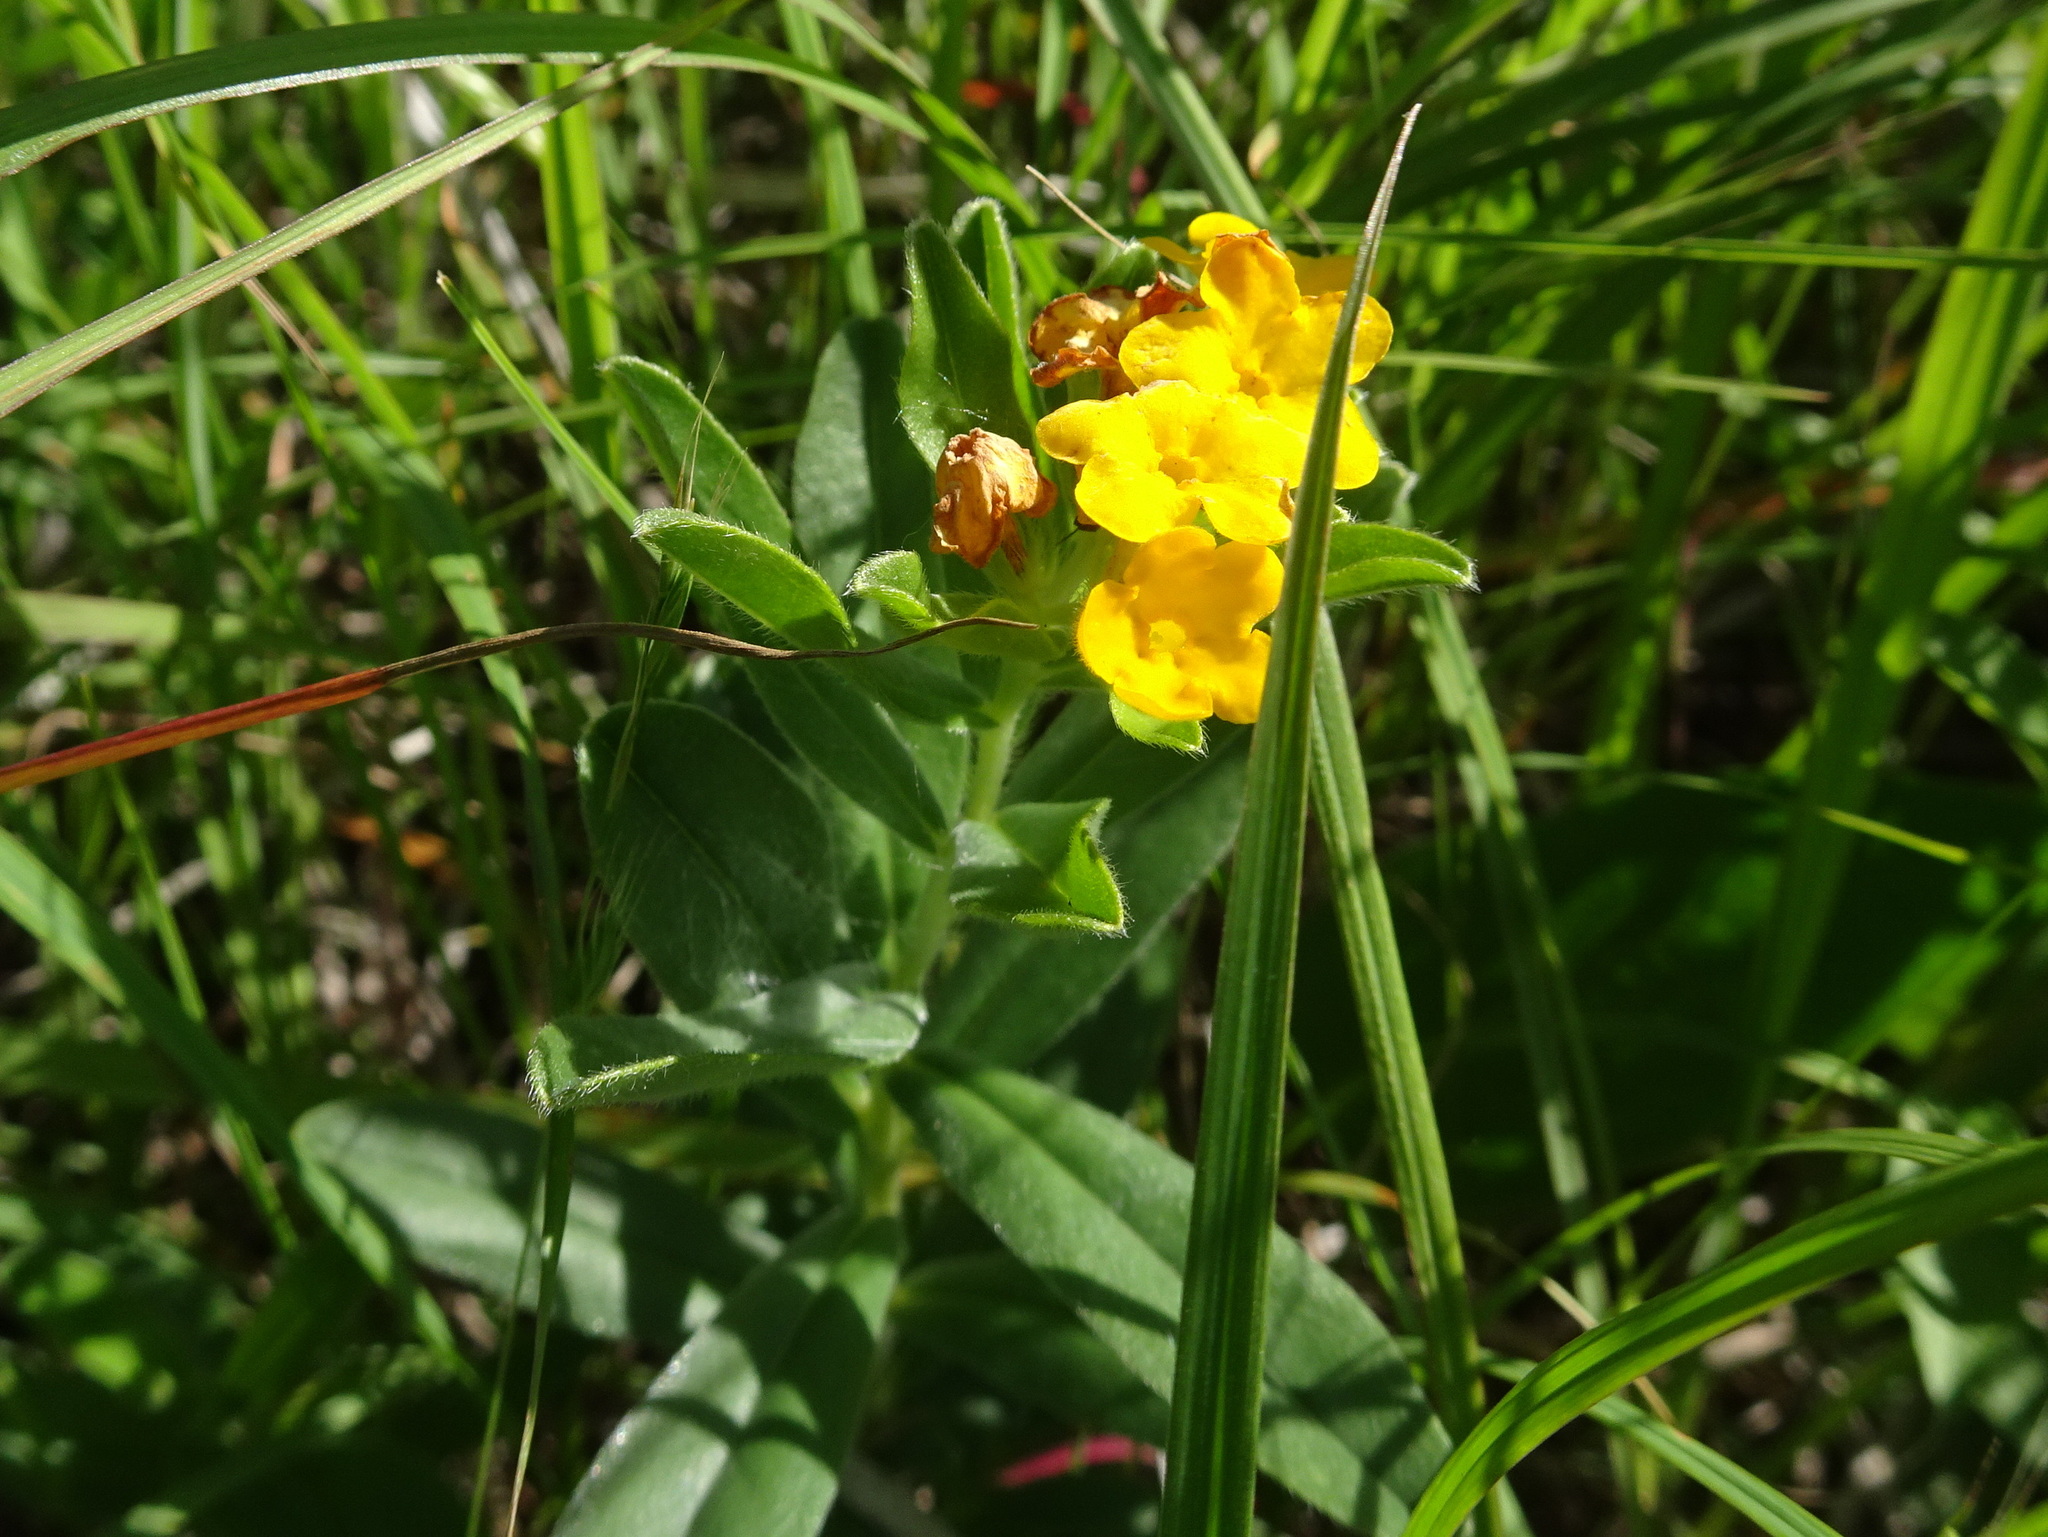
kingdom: Plantae
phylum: Tracheophyta
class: Magnoliopsida
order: Boraginales
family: Boraginaceae
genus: Lithospermum
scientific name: Lithospermum canescens
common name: Hoary puccoon
